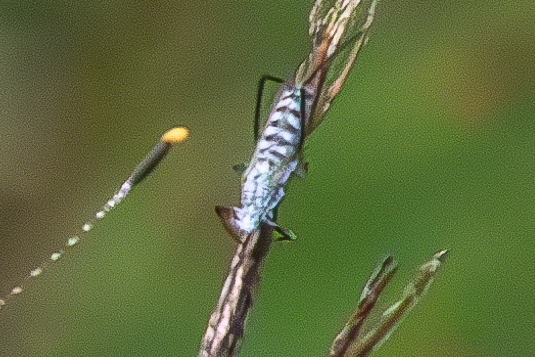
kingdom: Animalia
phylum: Arthropoda
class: Insecta
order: Hemiptera
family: Aphididae
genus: Eulachnus
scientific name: Eulachnus rileyi
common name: Active gray pine needle aphid
